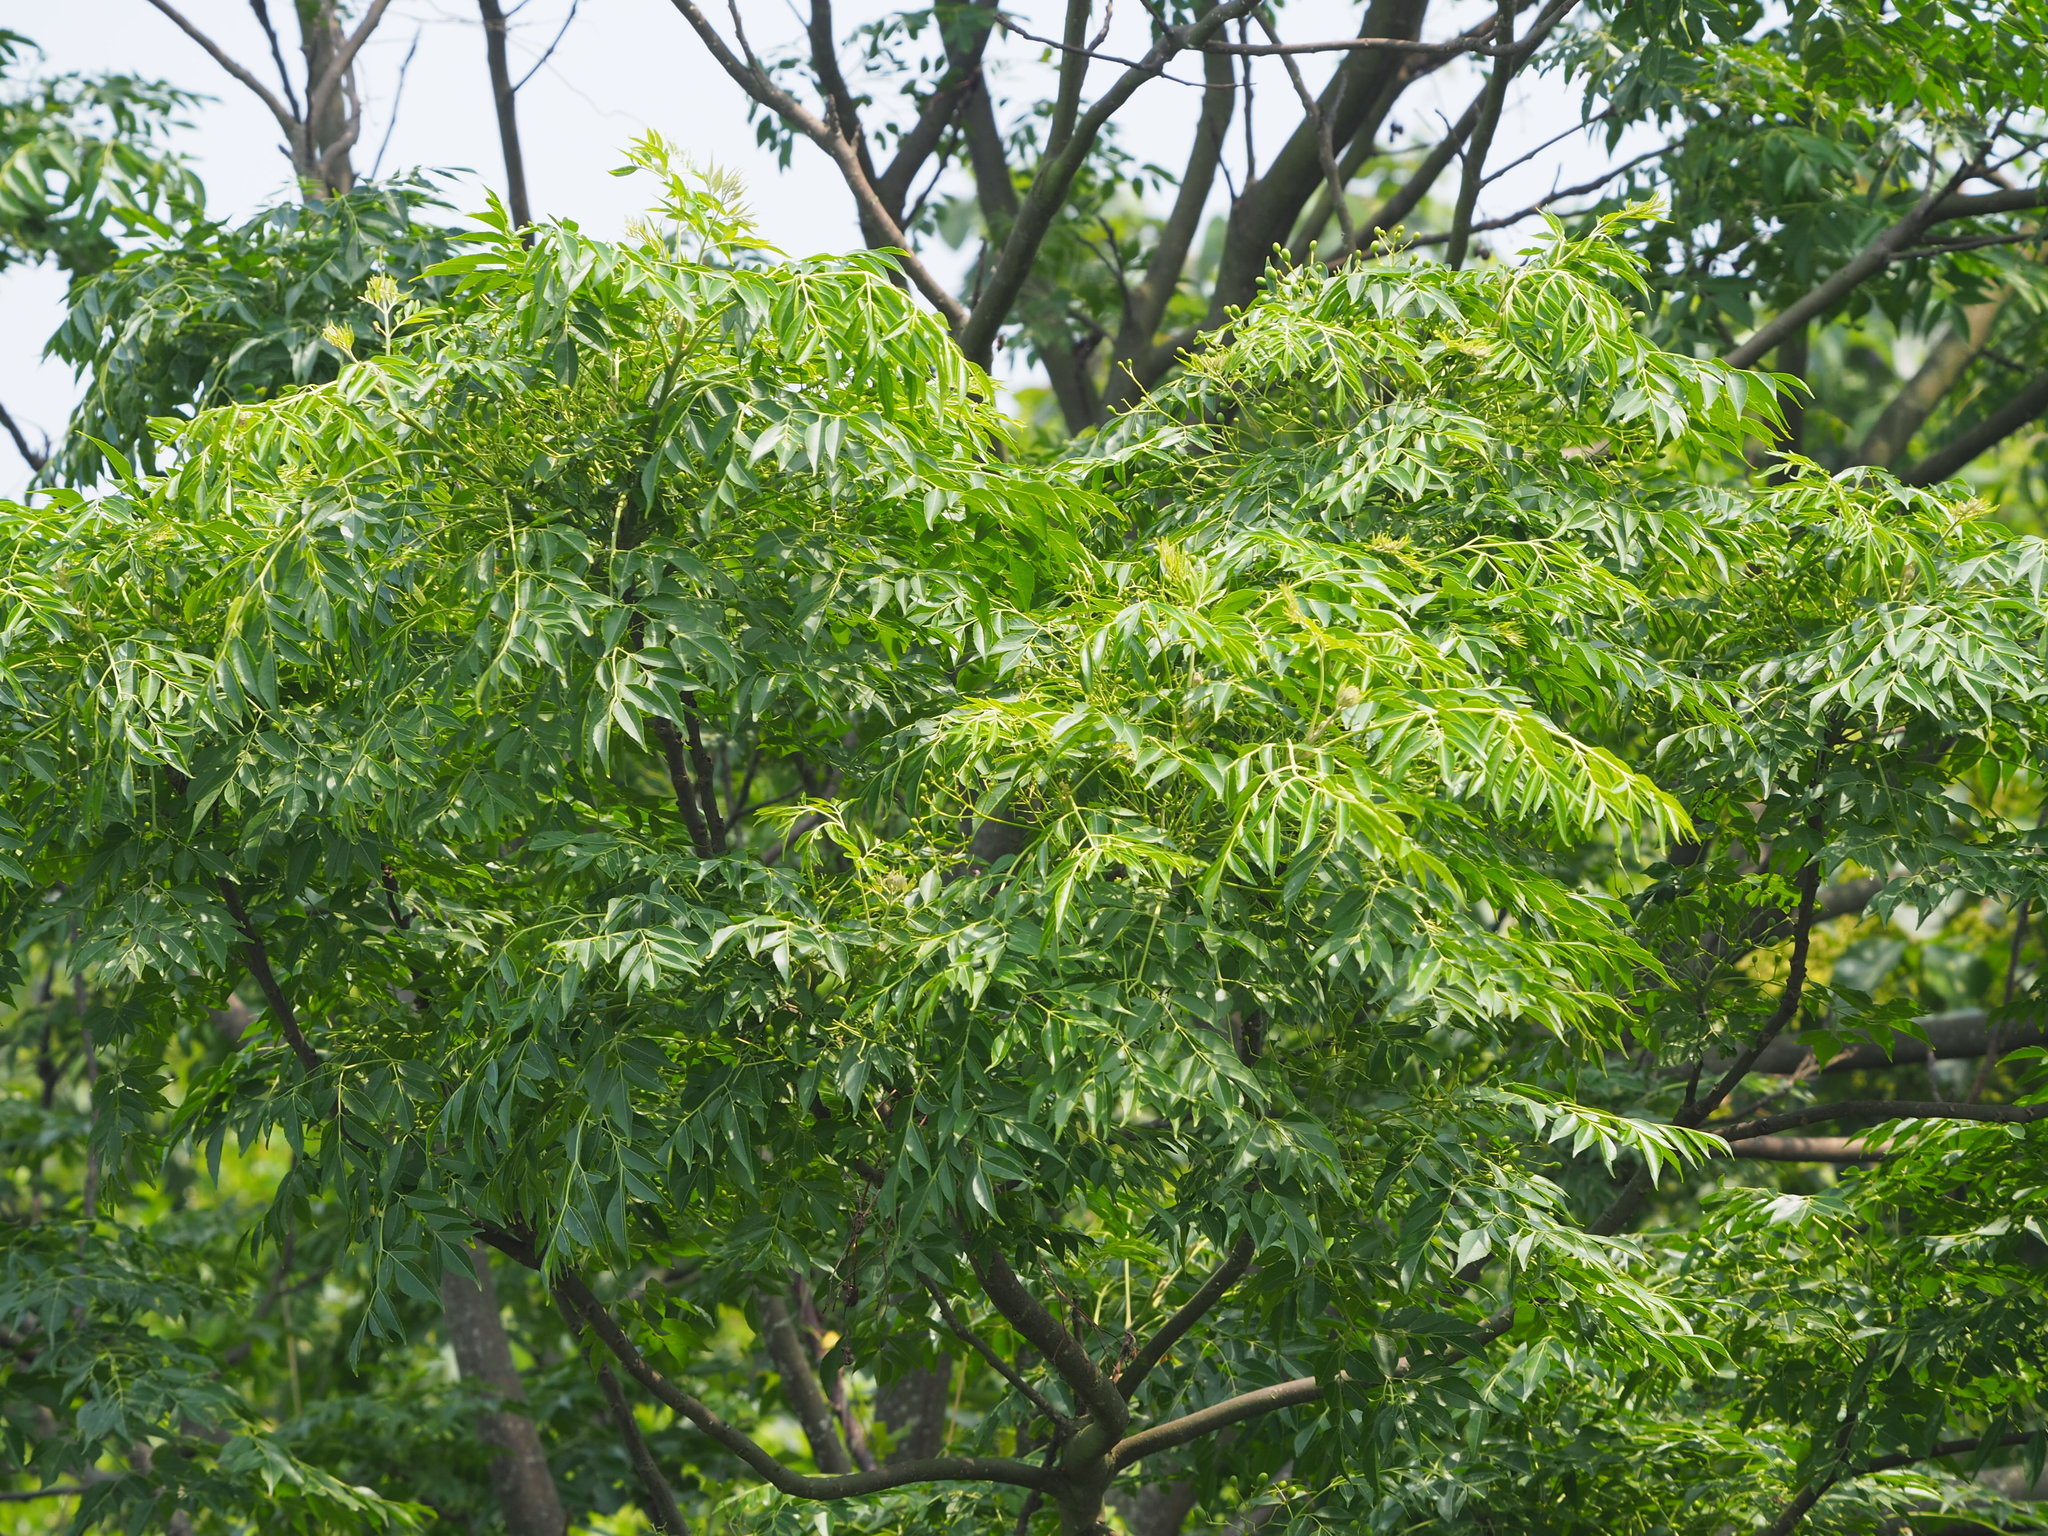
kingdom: Plantae
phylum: Tracheophyta
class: Magnoliopsida
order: Sapindales
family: Meliaceae
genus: Melia
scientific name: Melia azedarach
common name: Chinaberrytree
